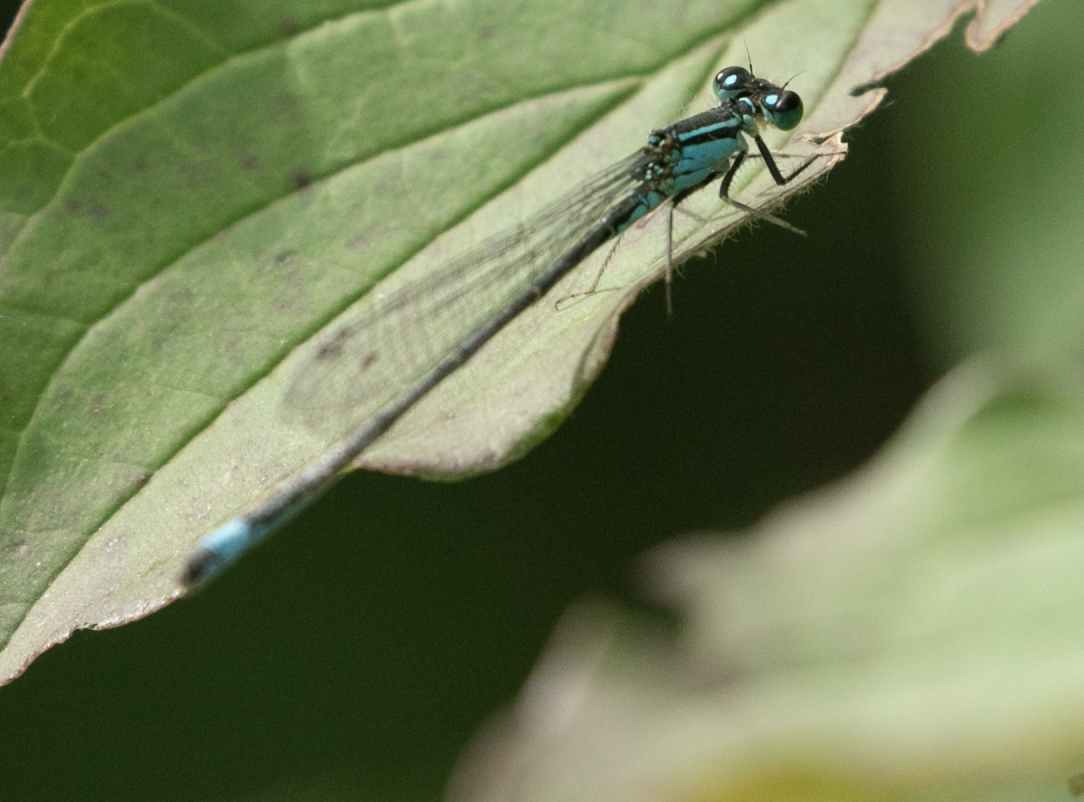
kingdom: Animalia
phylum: Arthropoda
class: Insecta
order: Odonata
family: Coenagrionidae
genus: Ischnura
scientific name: Ischnura elegans
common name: Blue-tailed damselfly
